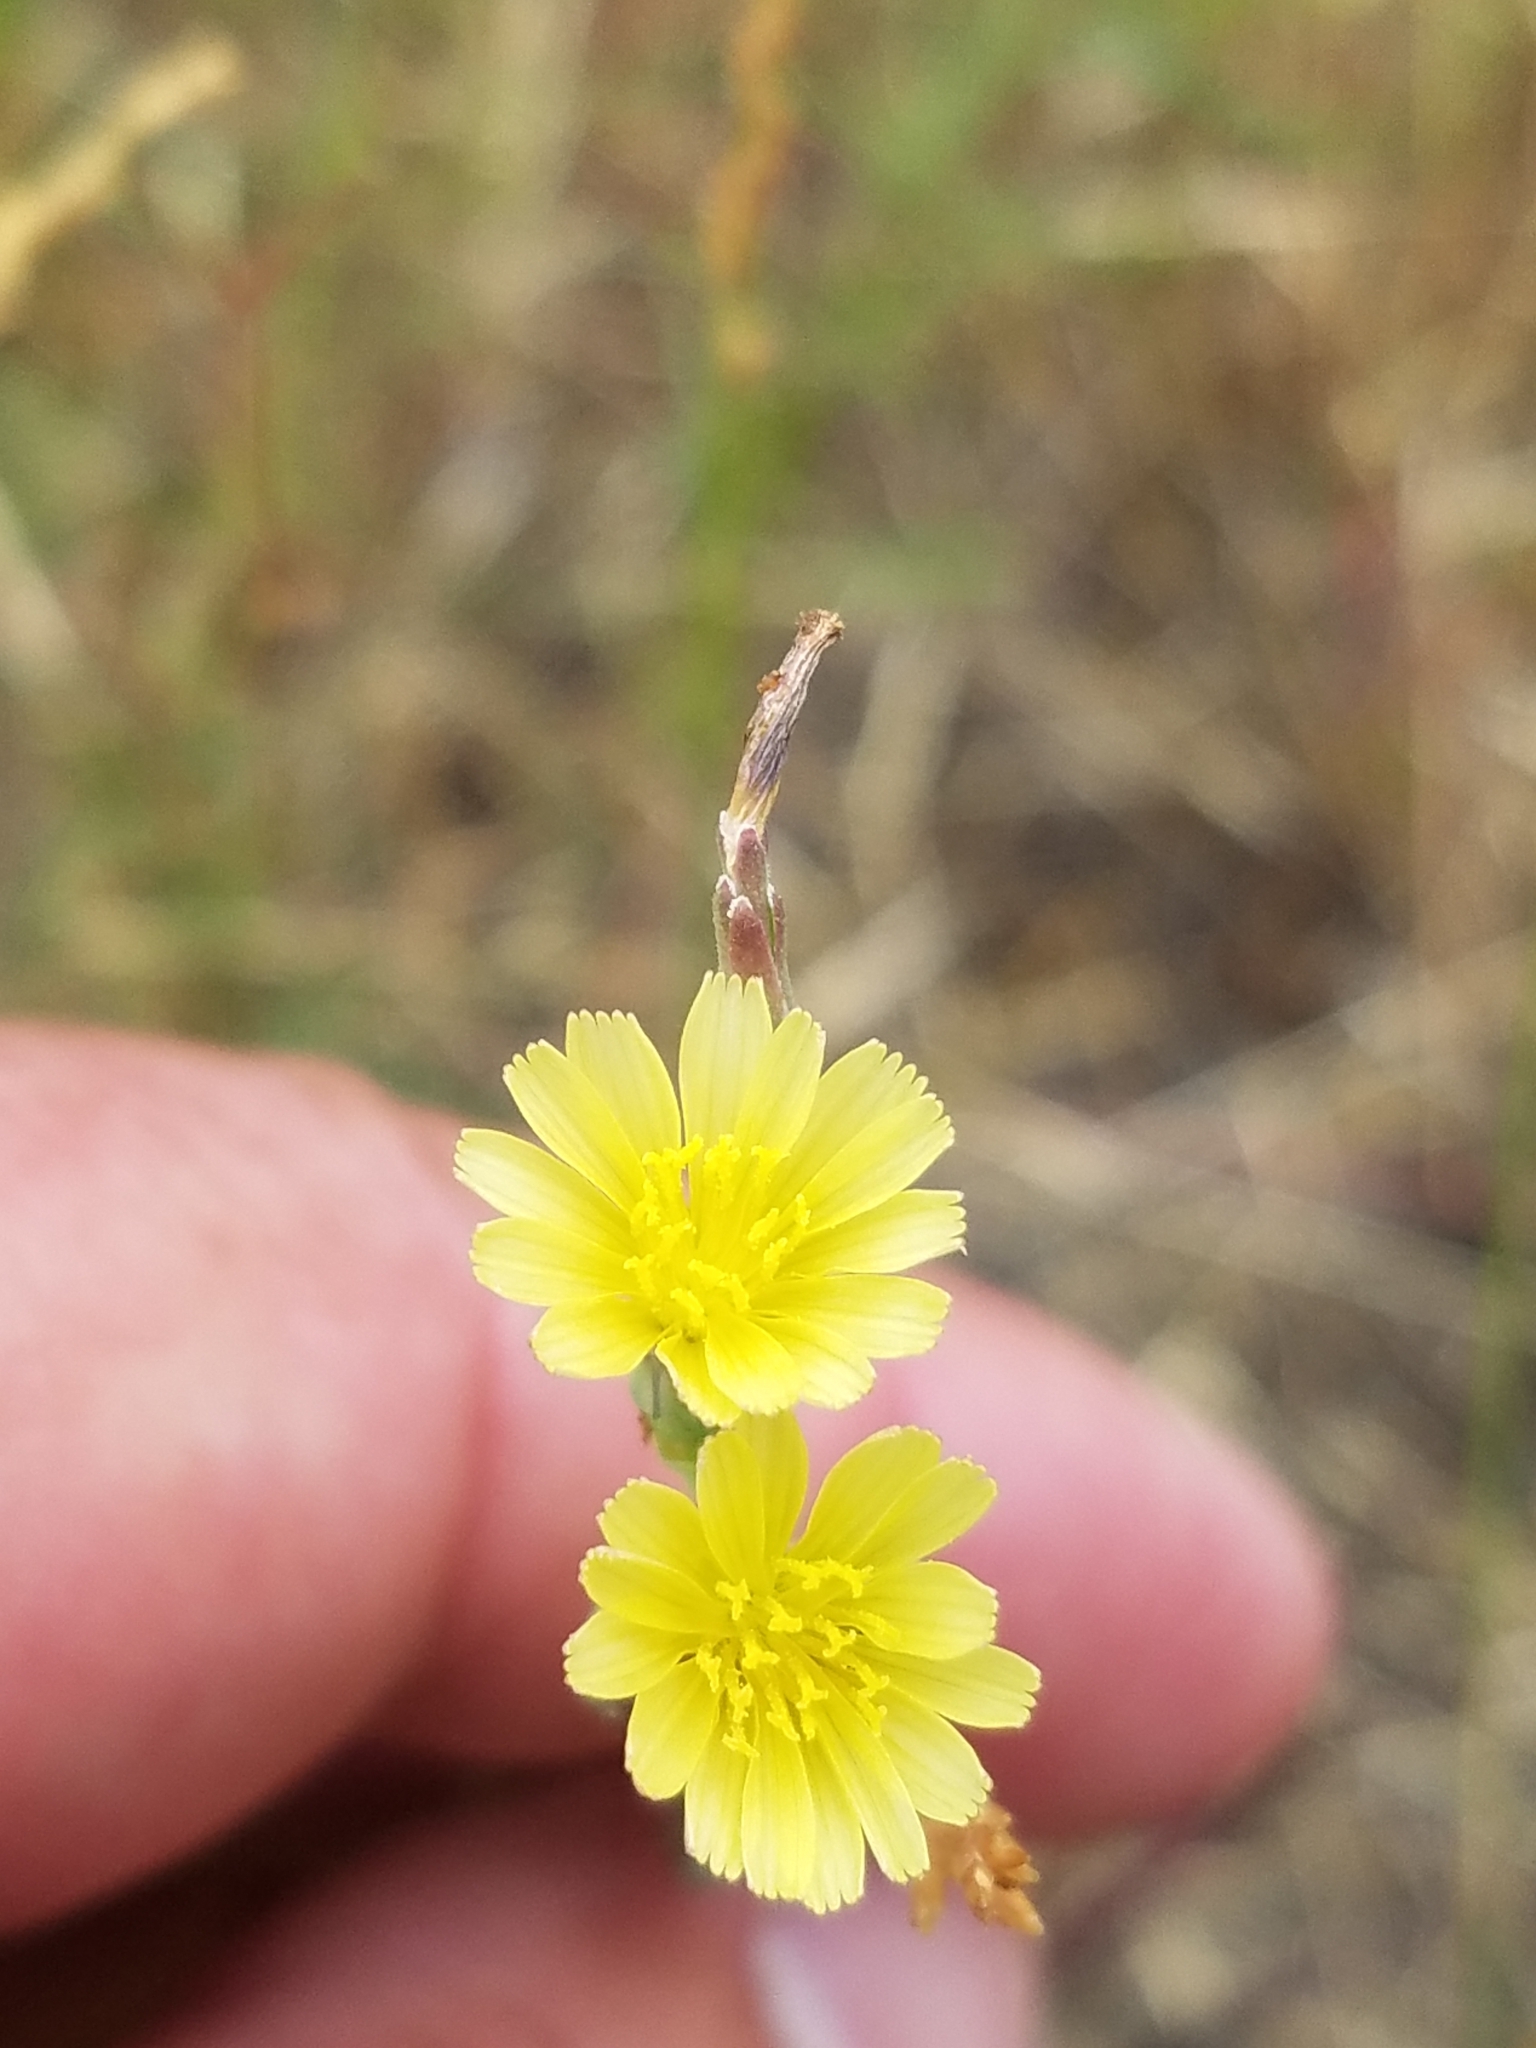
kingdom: Plantae
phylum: Tracheophyta
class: Magnoliopsida
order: Asterales
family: Asteraceae
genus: Lactuca
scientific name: Lactuca serriola
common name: Prickly lettuce
